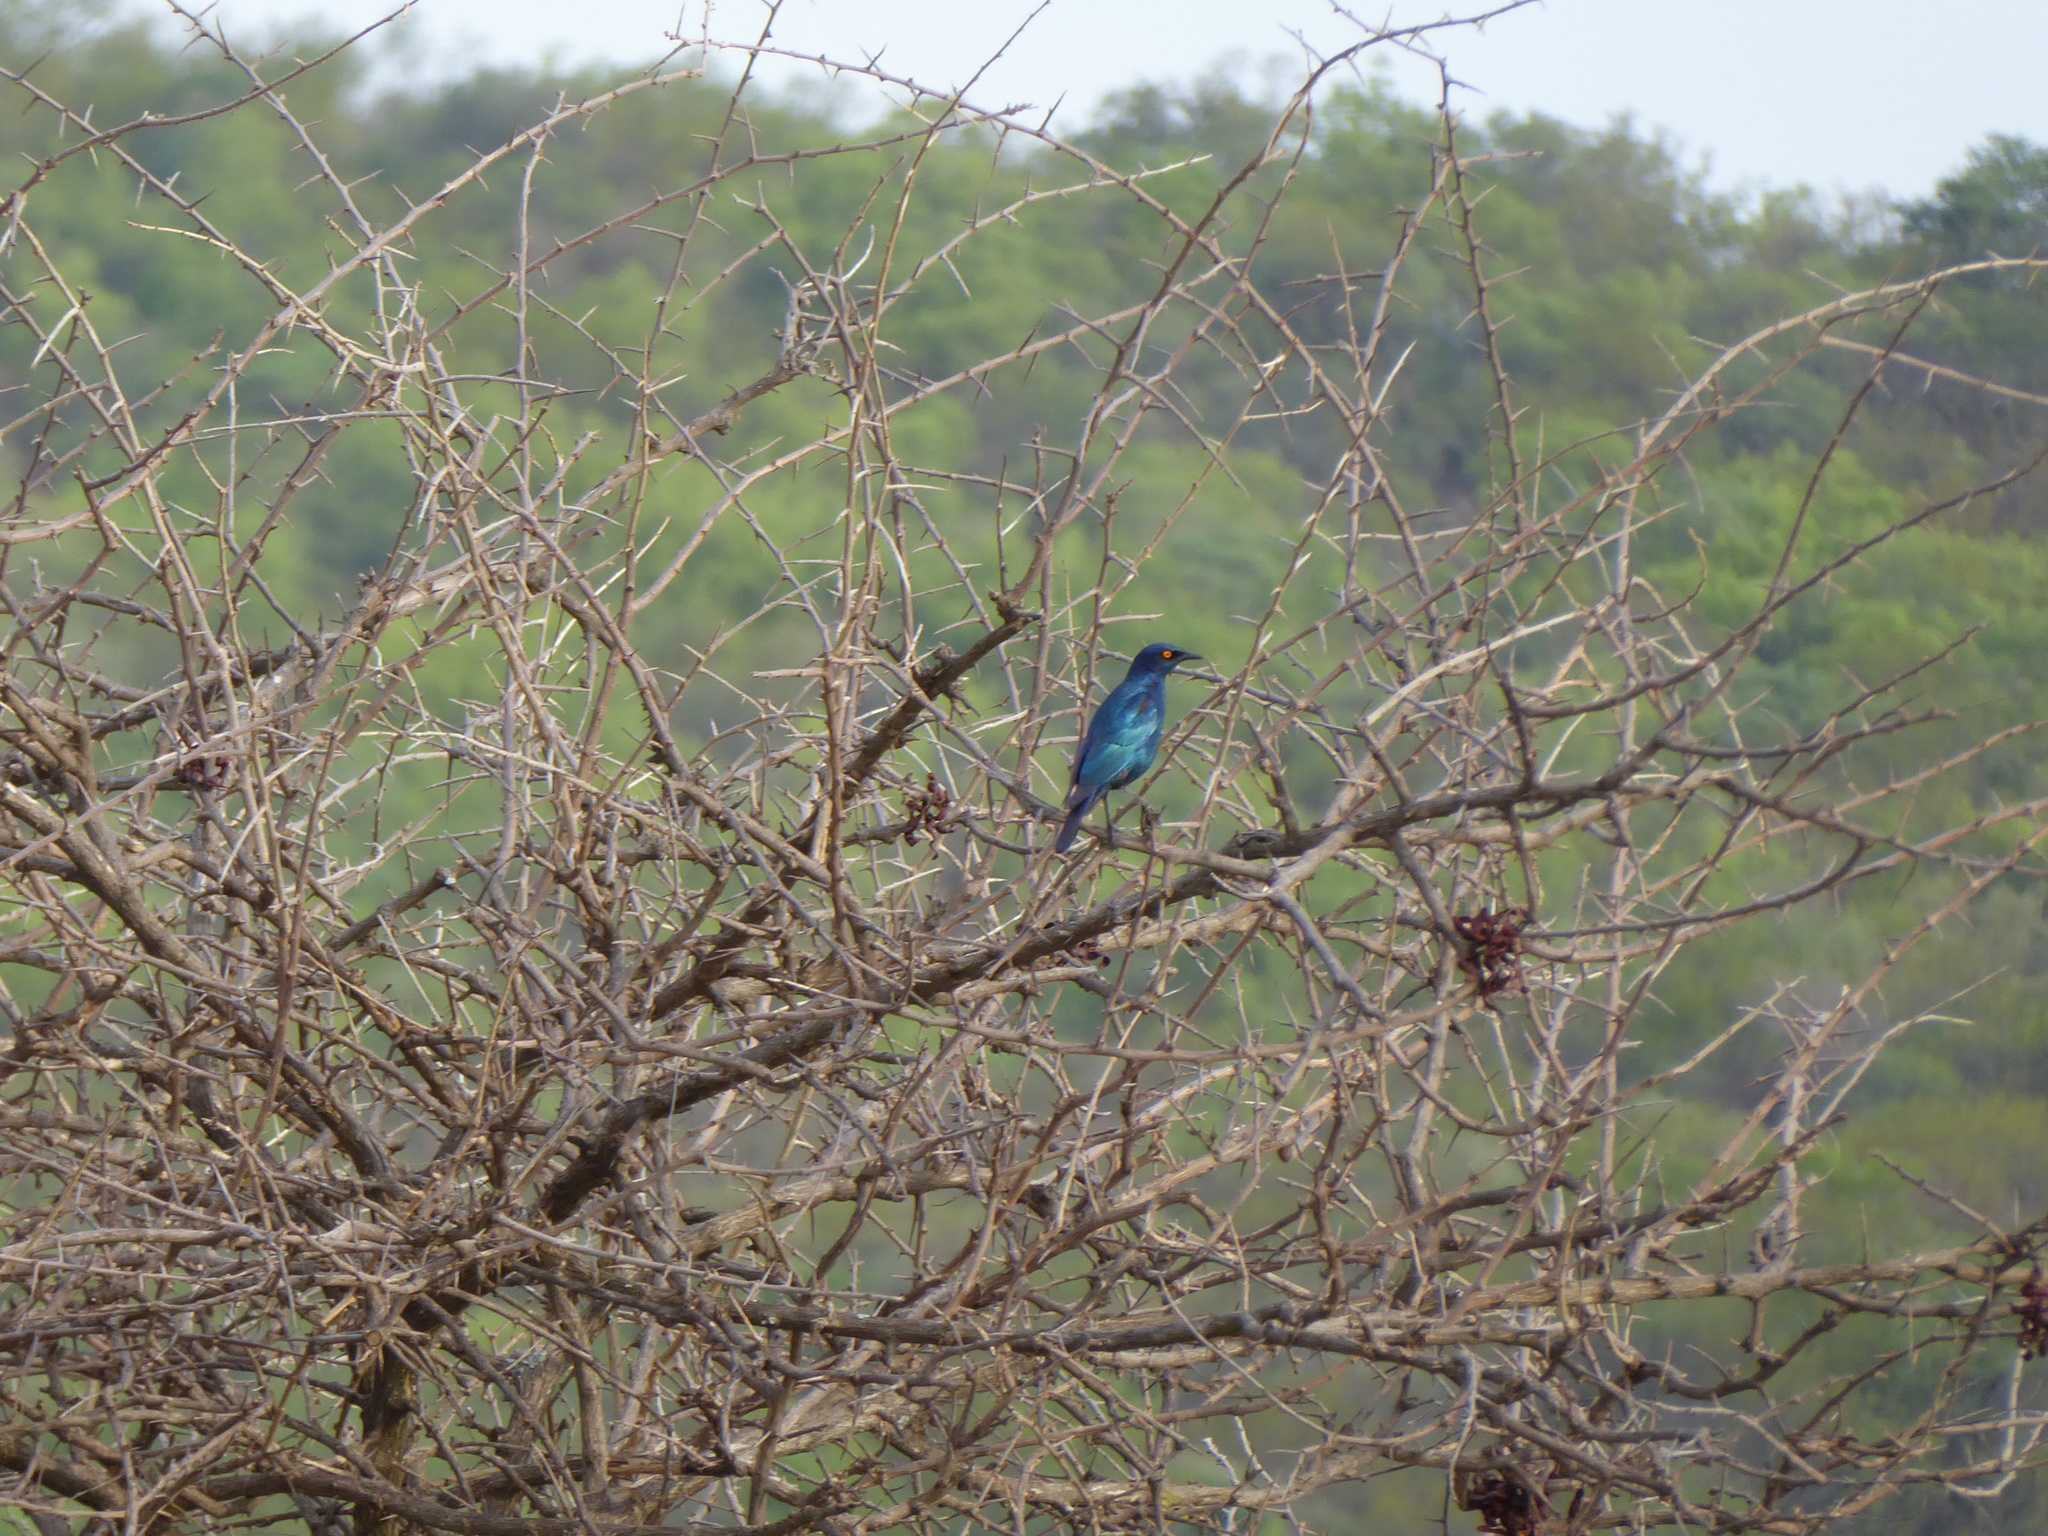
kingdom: Animalia
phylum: Chordata
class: Aves
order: Passeriformes
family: Sturnidae
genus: Lamprotornis
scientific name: Lamprotornis nitens
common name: Cape starling
